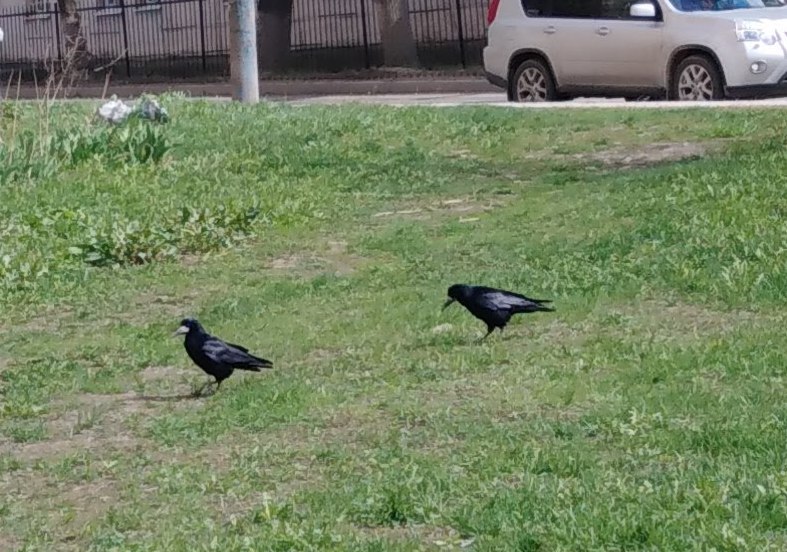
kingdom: Animalia
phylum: Chordata
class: Aves
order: Passeriformes
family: Corvidae
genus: Corvus
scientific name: Corvus frugilegus
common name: Rook
